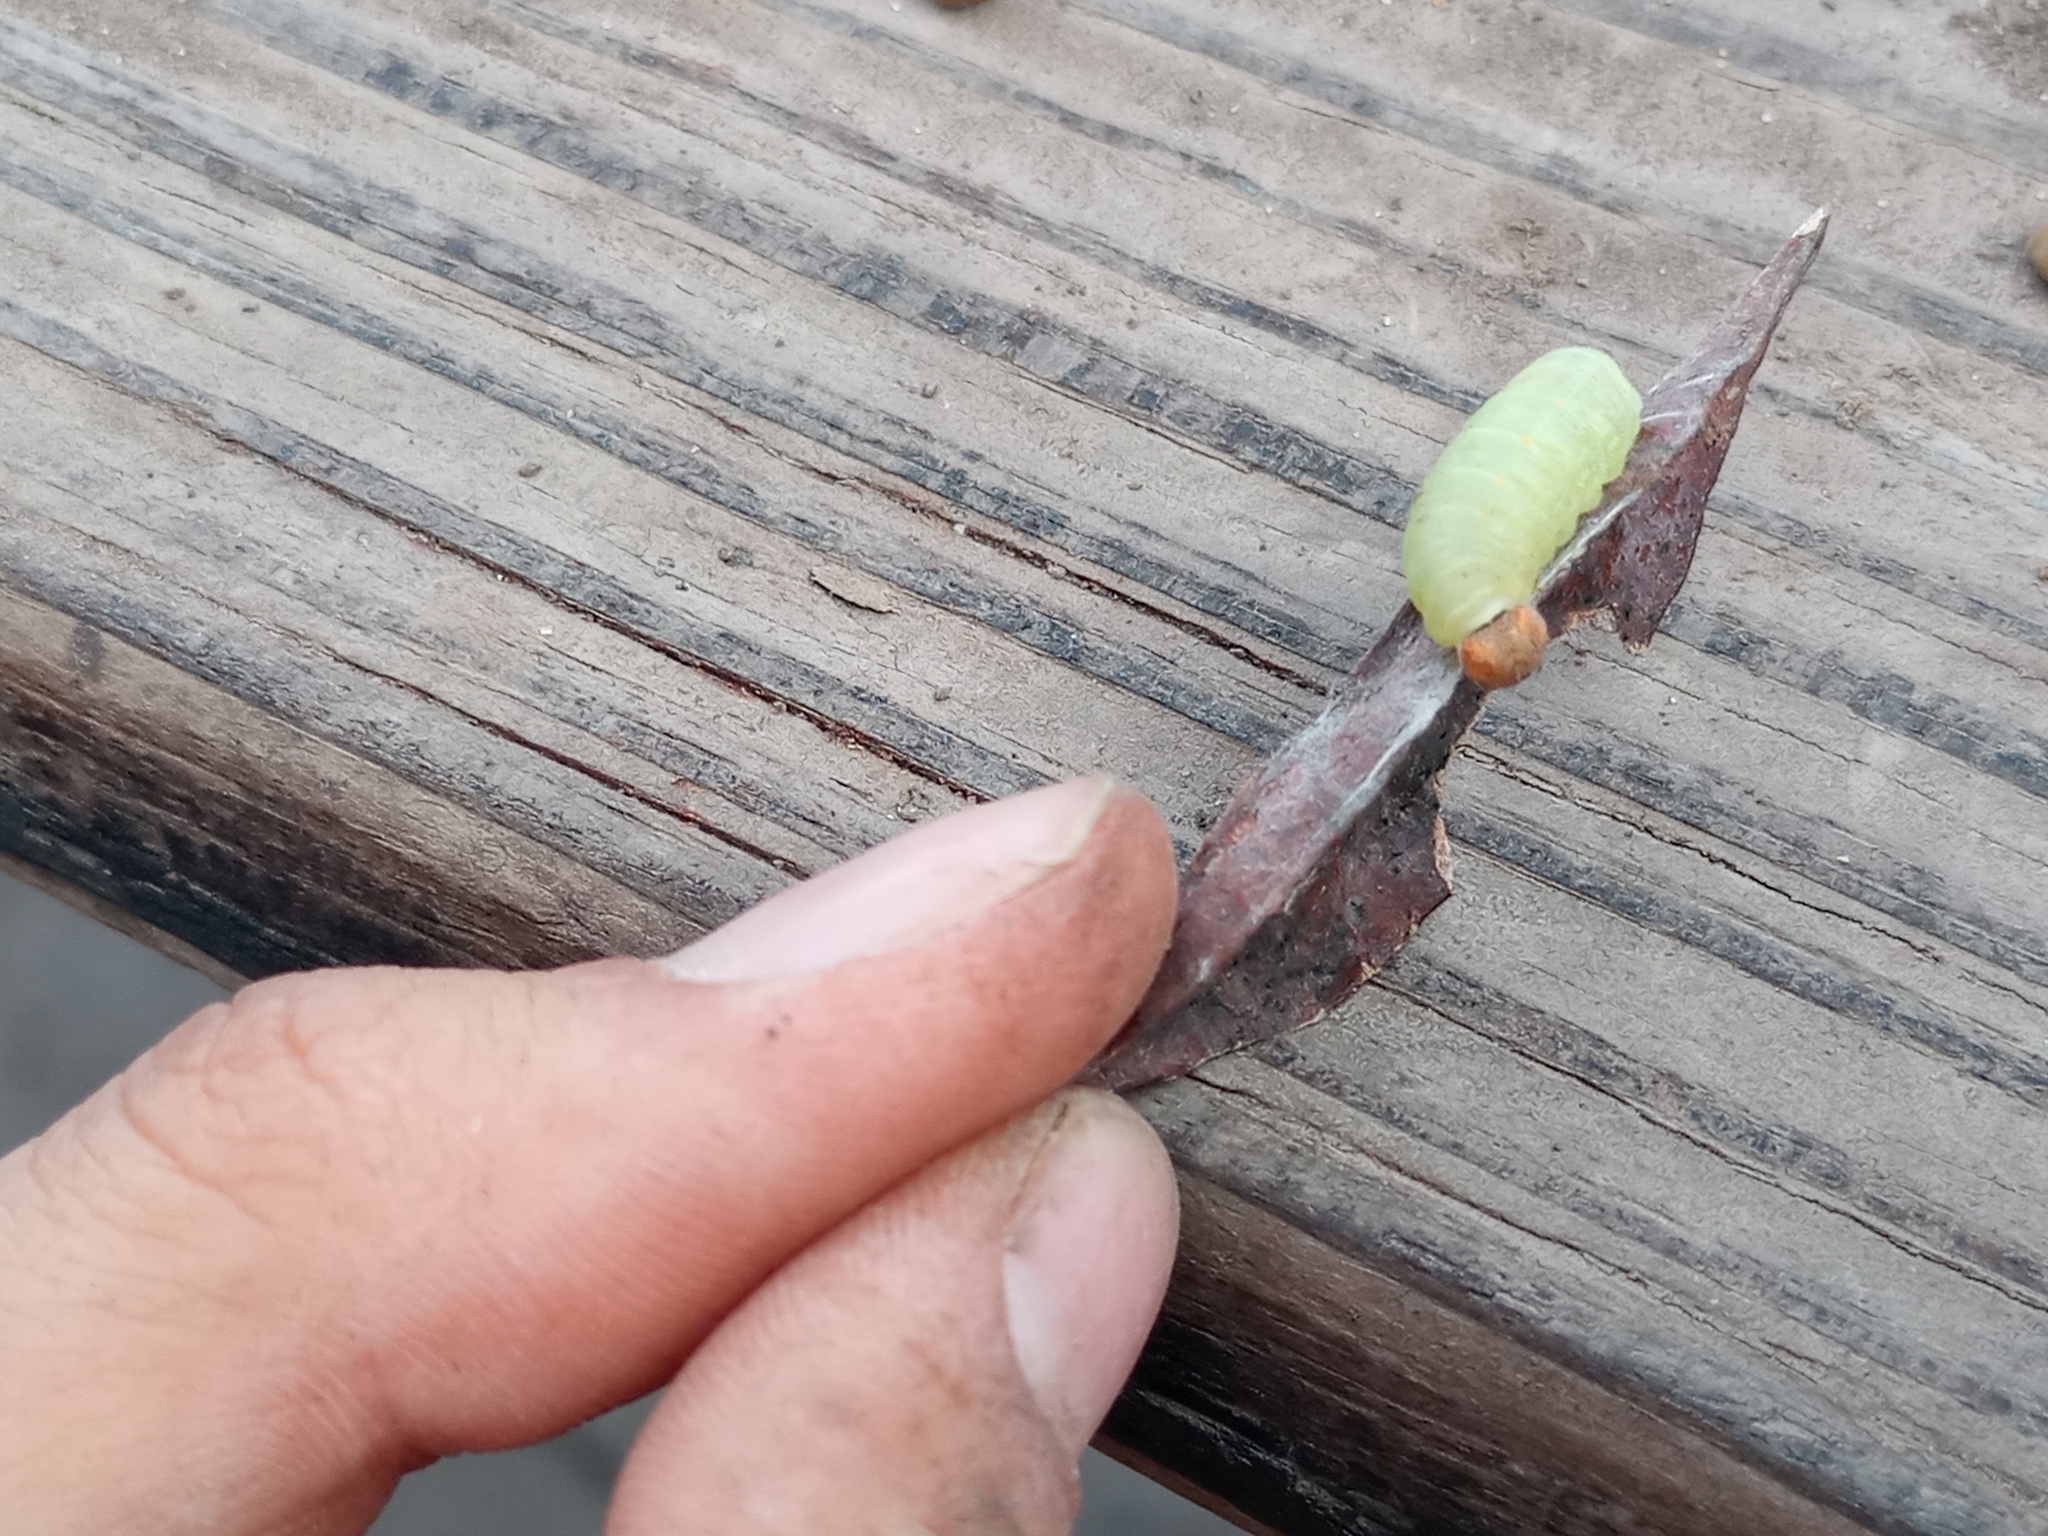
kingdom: Animalia
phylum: Arthropoda
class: Insecta
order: Lepidoptera
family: Hesperiidae
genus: Erynnis
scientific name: Erynnis funeralis
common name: Funereal duskywing
